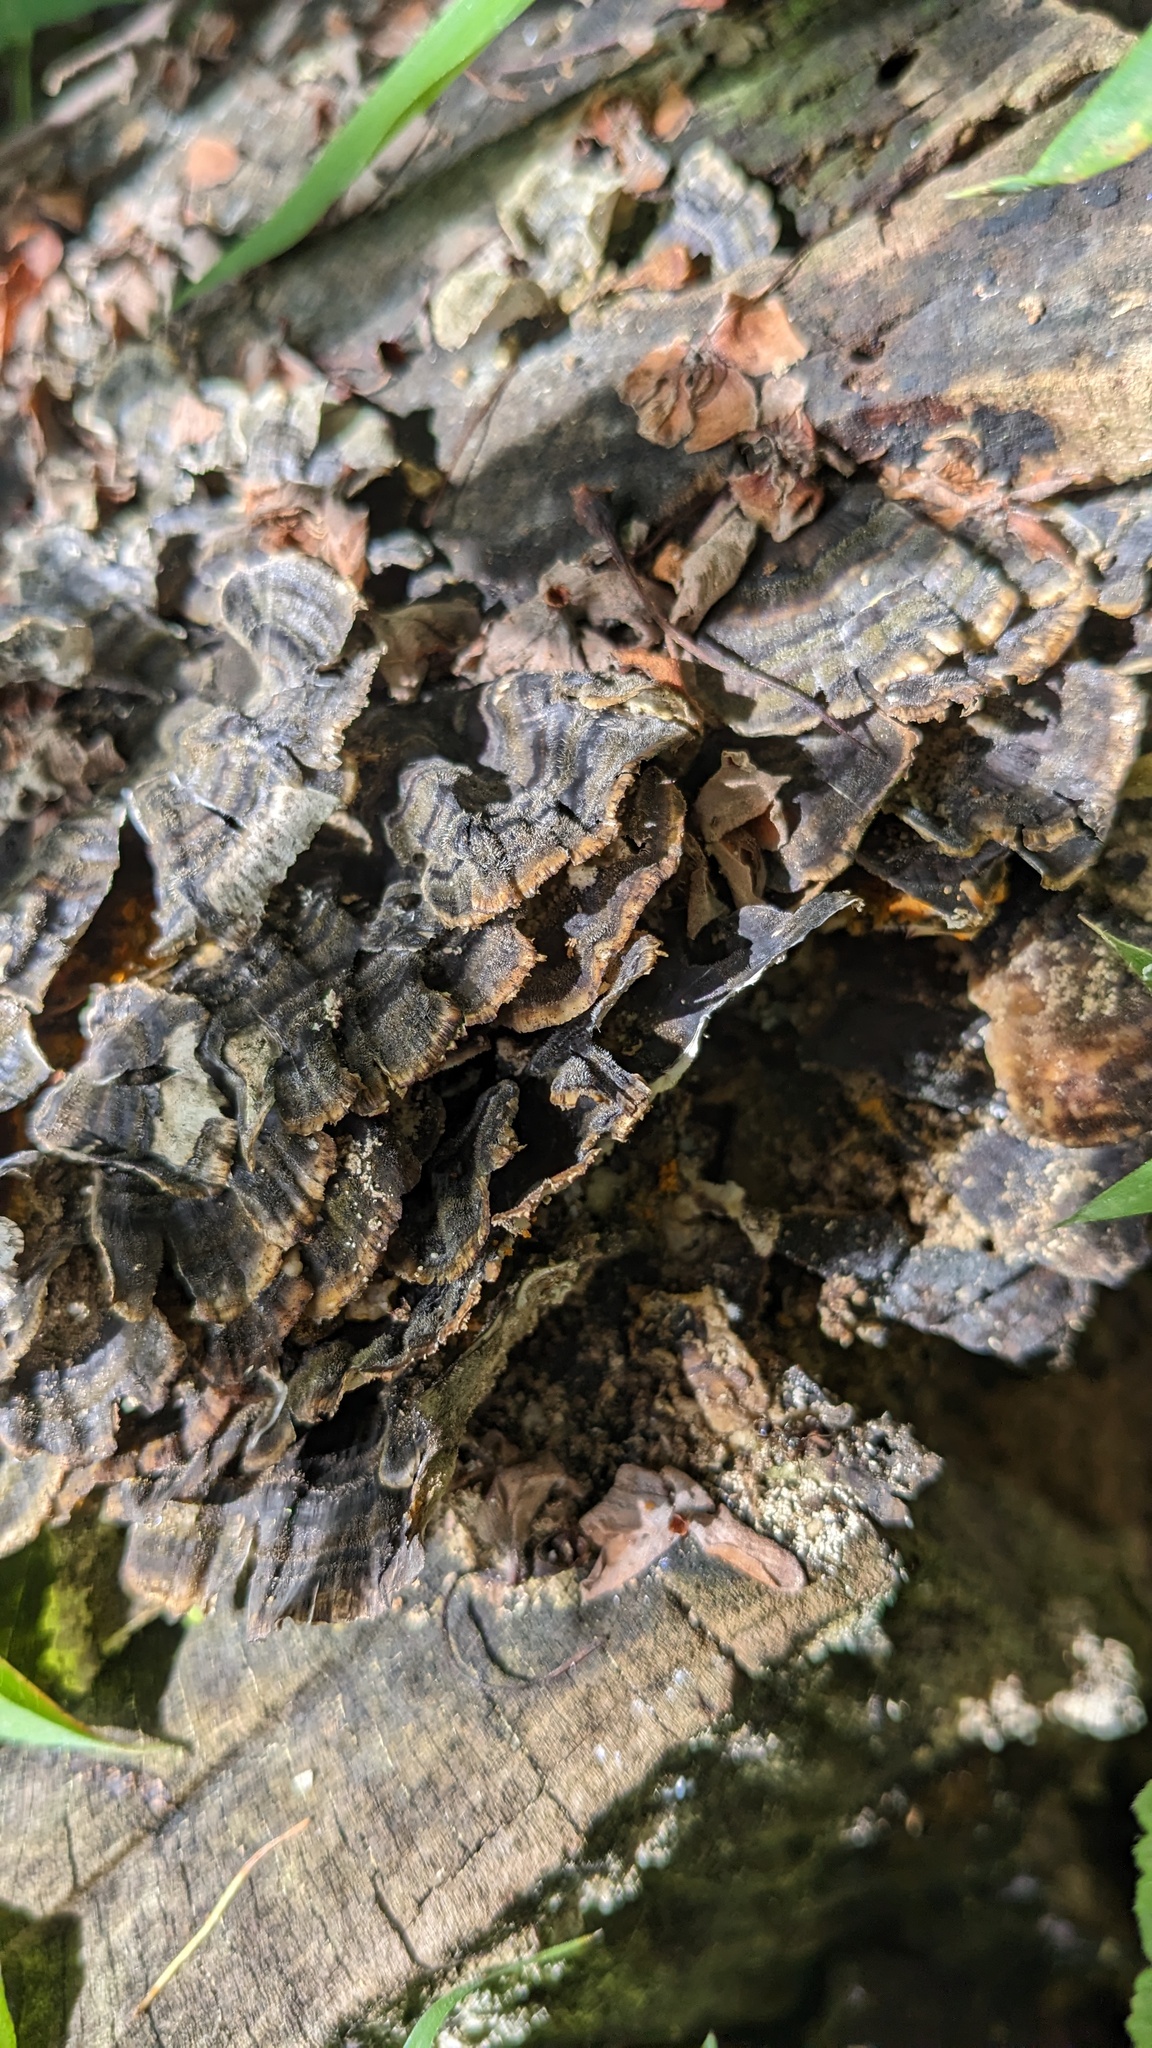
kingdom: Fungi
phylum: Basidiomycota
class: Agaricomycetes
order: Polyporales
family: Polyporaceae
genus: Trametes
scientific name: Trametes versicolor
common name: Turkeytail
